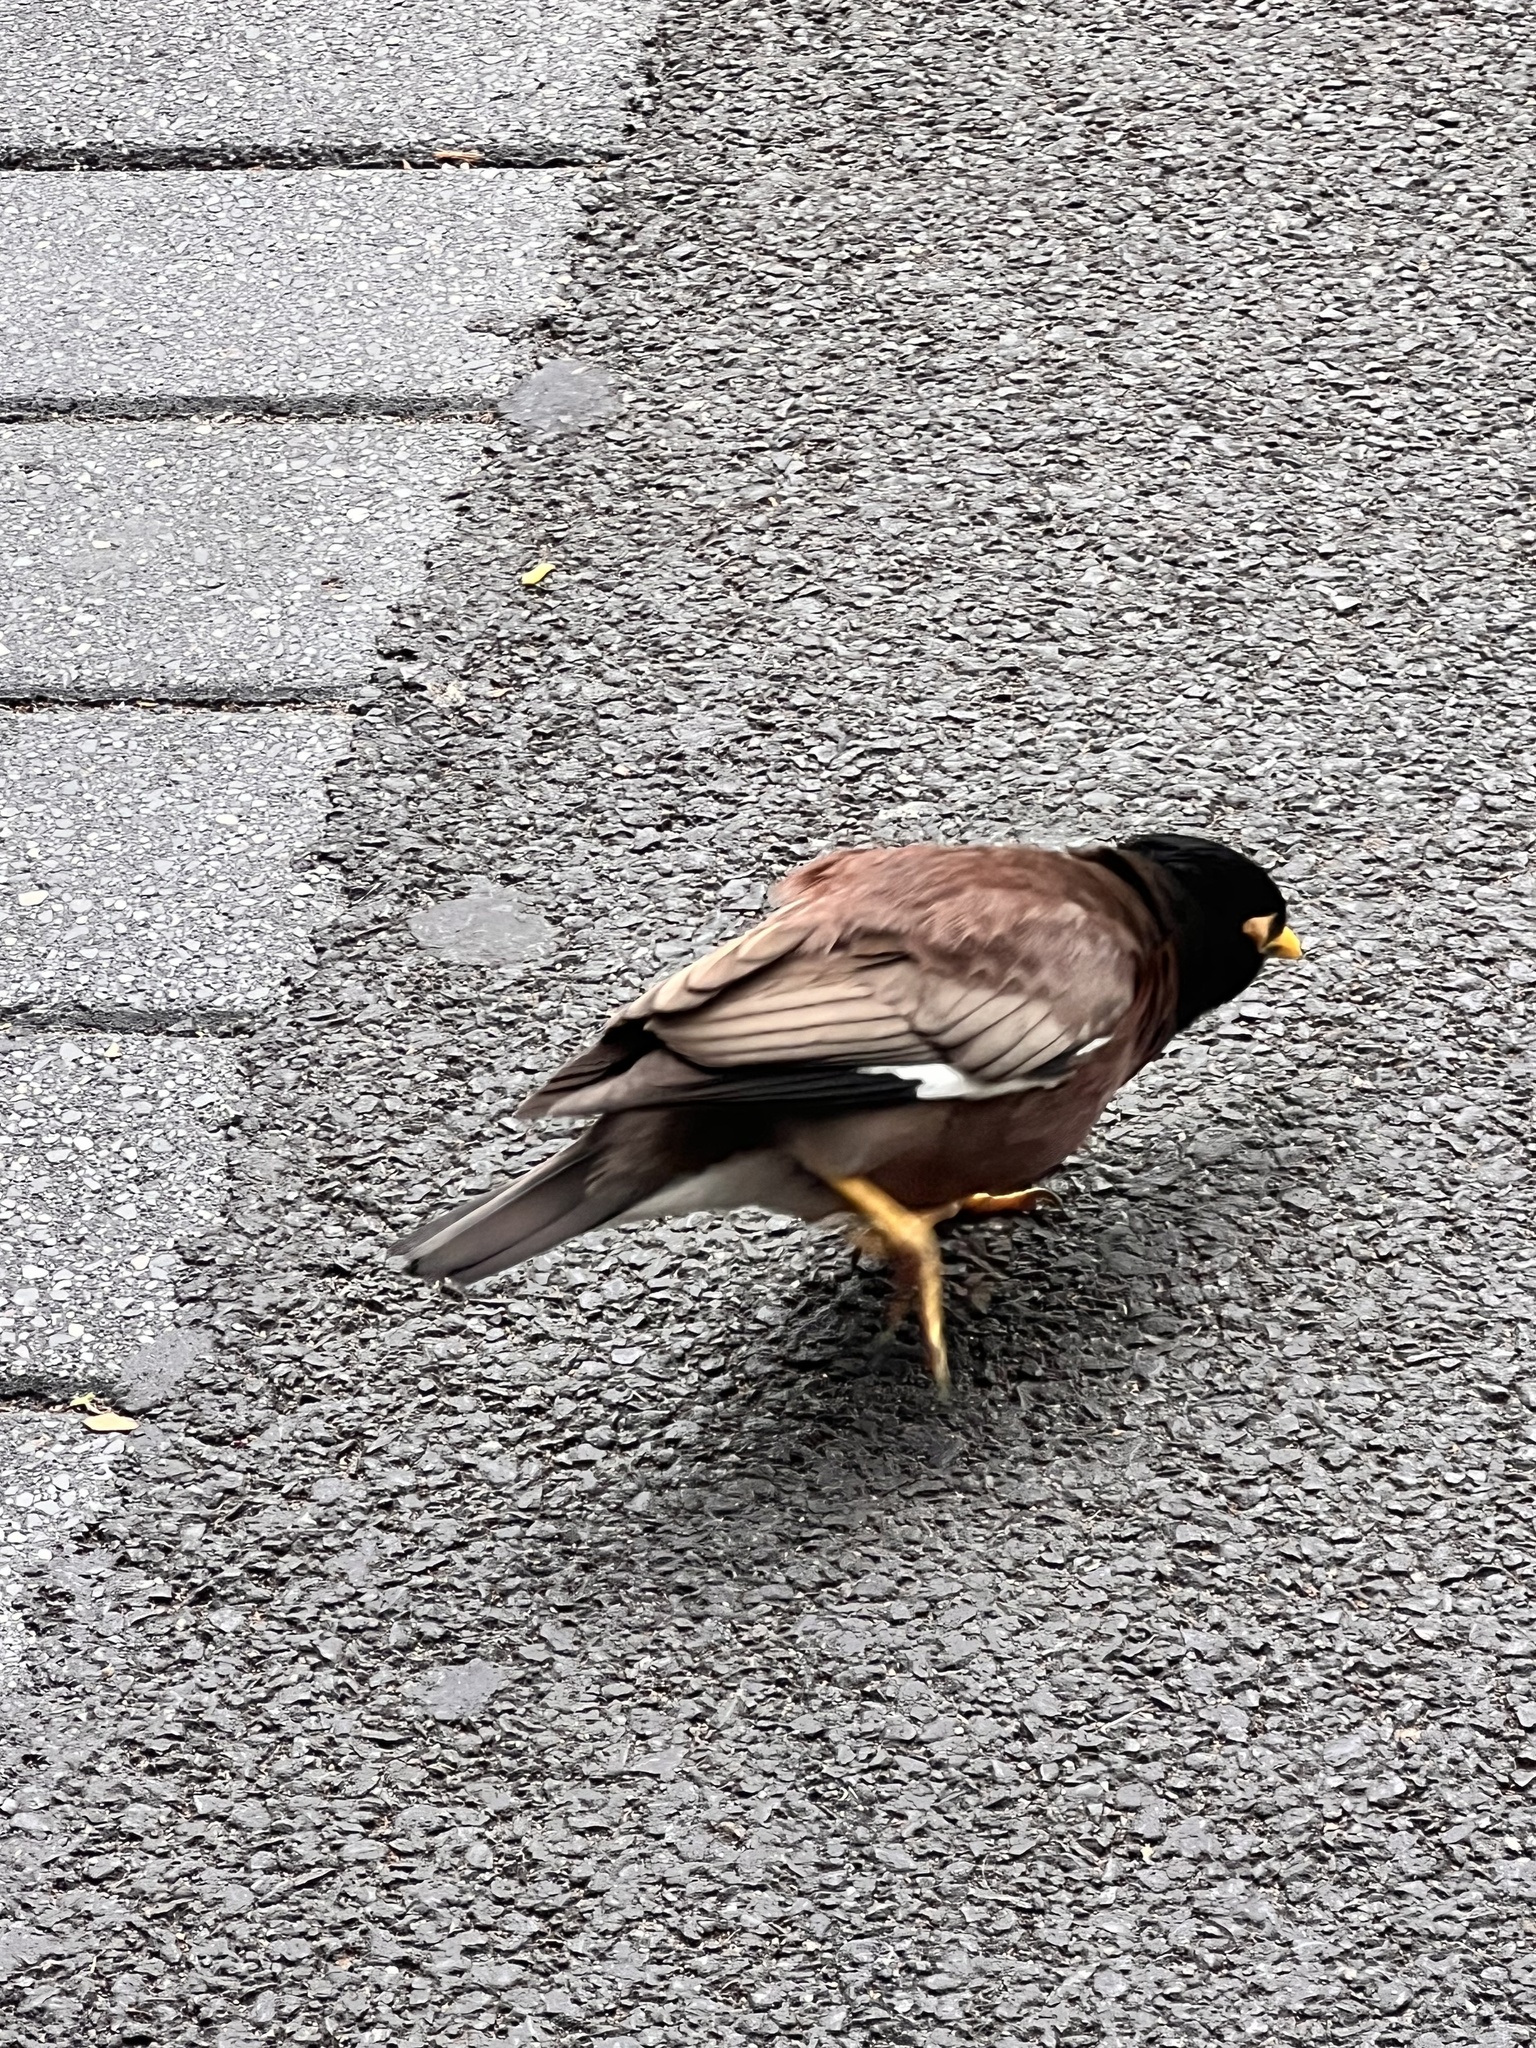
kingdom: Animalia
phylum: Chordata
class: Aves
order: Passeriformes
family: Sturnidae
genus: Acridotheres
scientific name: Acridotheres tristis
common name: Common myna
